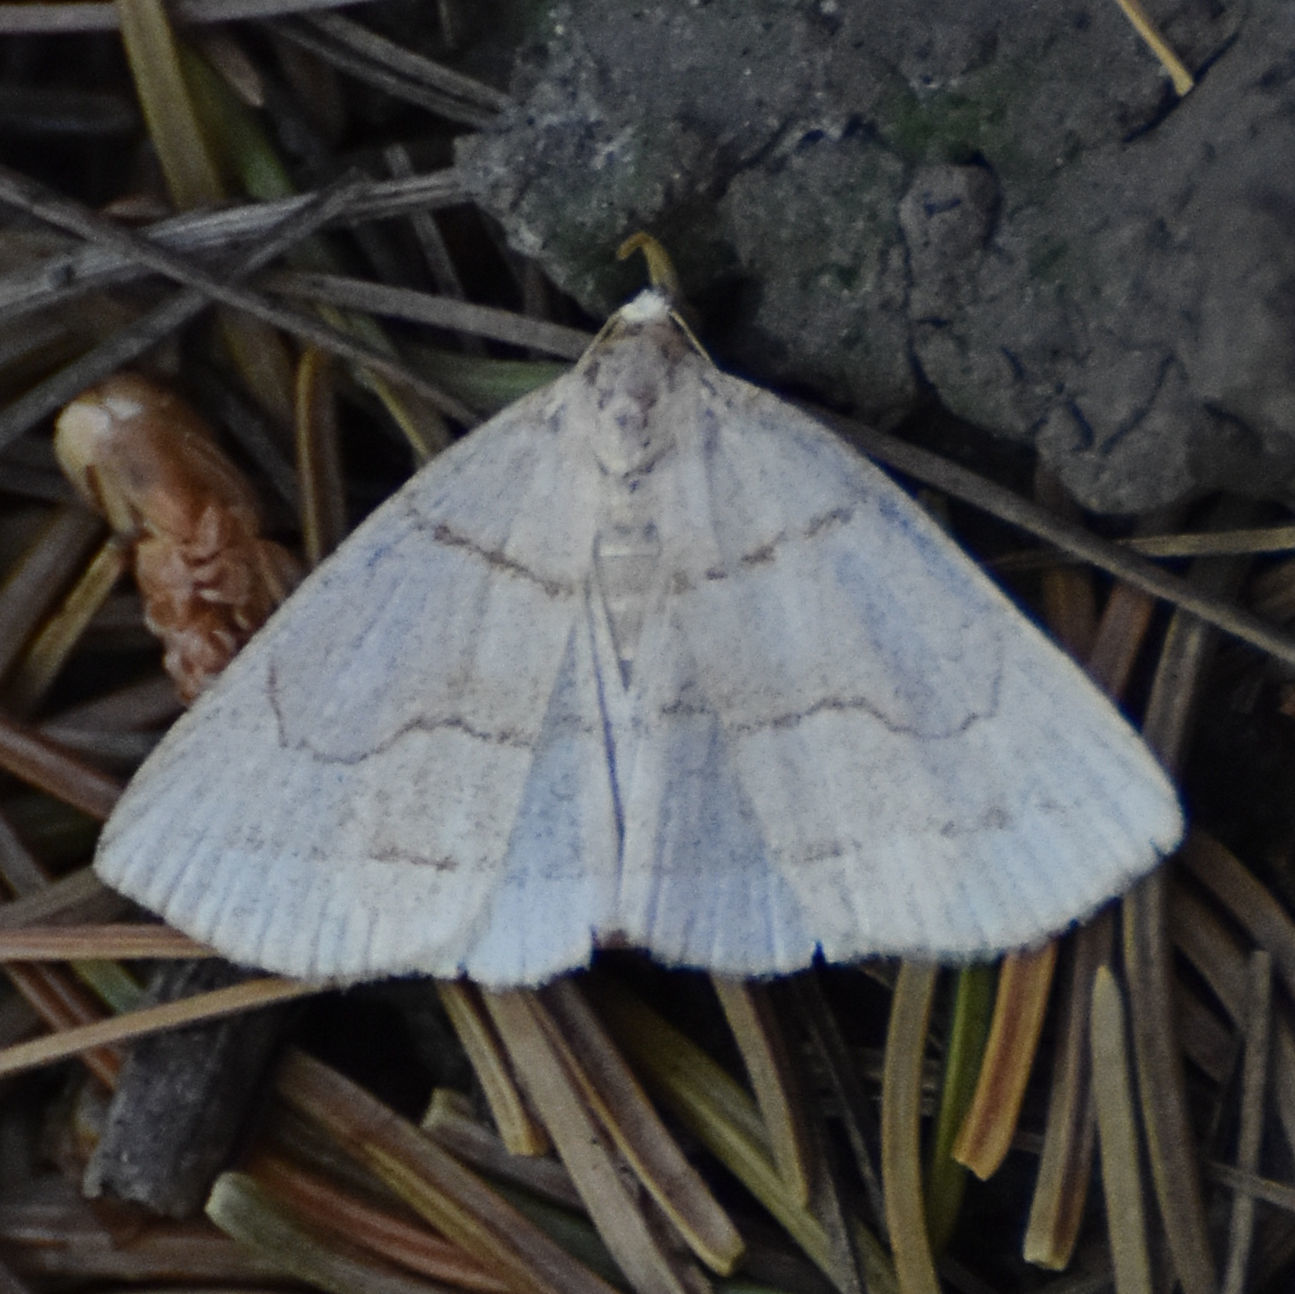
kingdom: Animalia
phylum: Arthropoda
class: Insecta
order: Lepidoptera
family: Erebidae
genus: Zanclognatha
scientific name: Zanclognatha pedipilalis
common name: Grayish fan-foot
